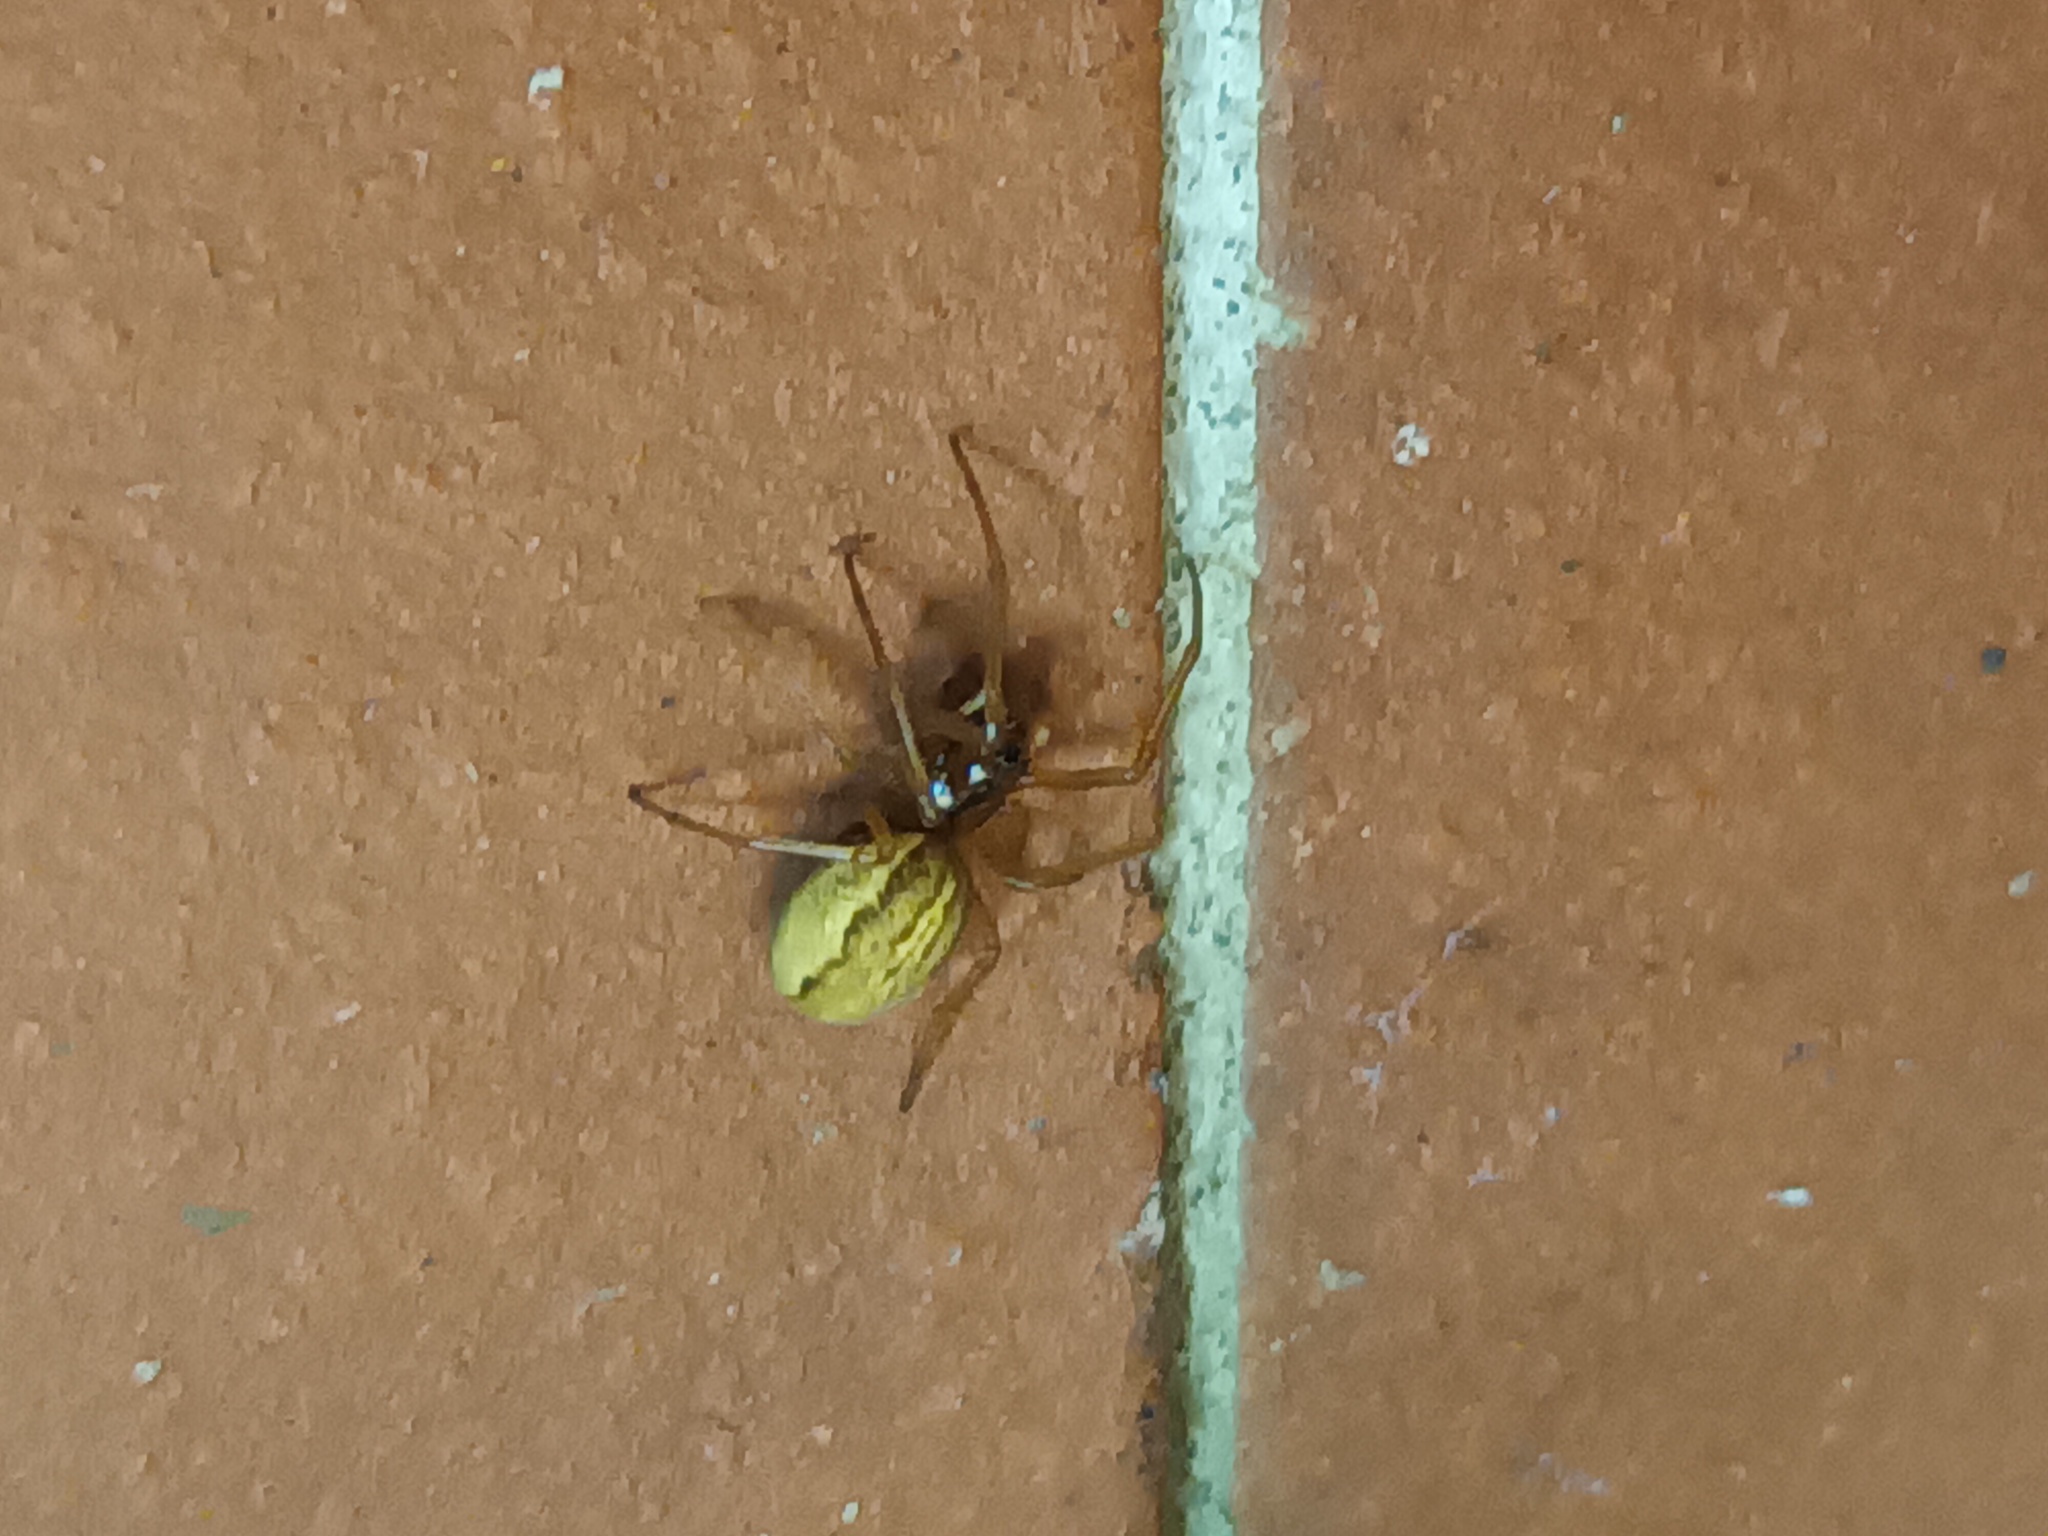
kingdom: Animalia
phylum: Arthropoda
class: Arachnida
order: Araneae
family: Tetragnathidae
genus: Pachygnatha
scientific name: Pachygnatha clercki
